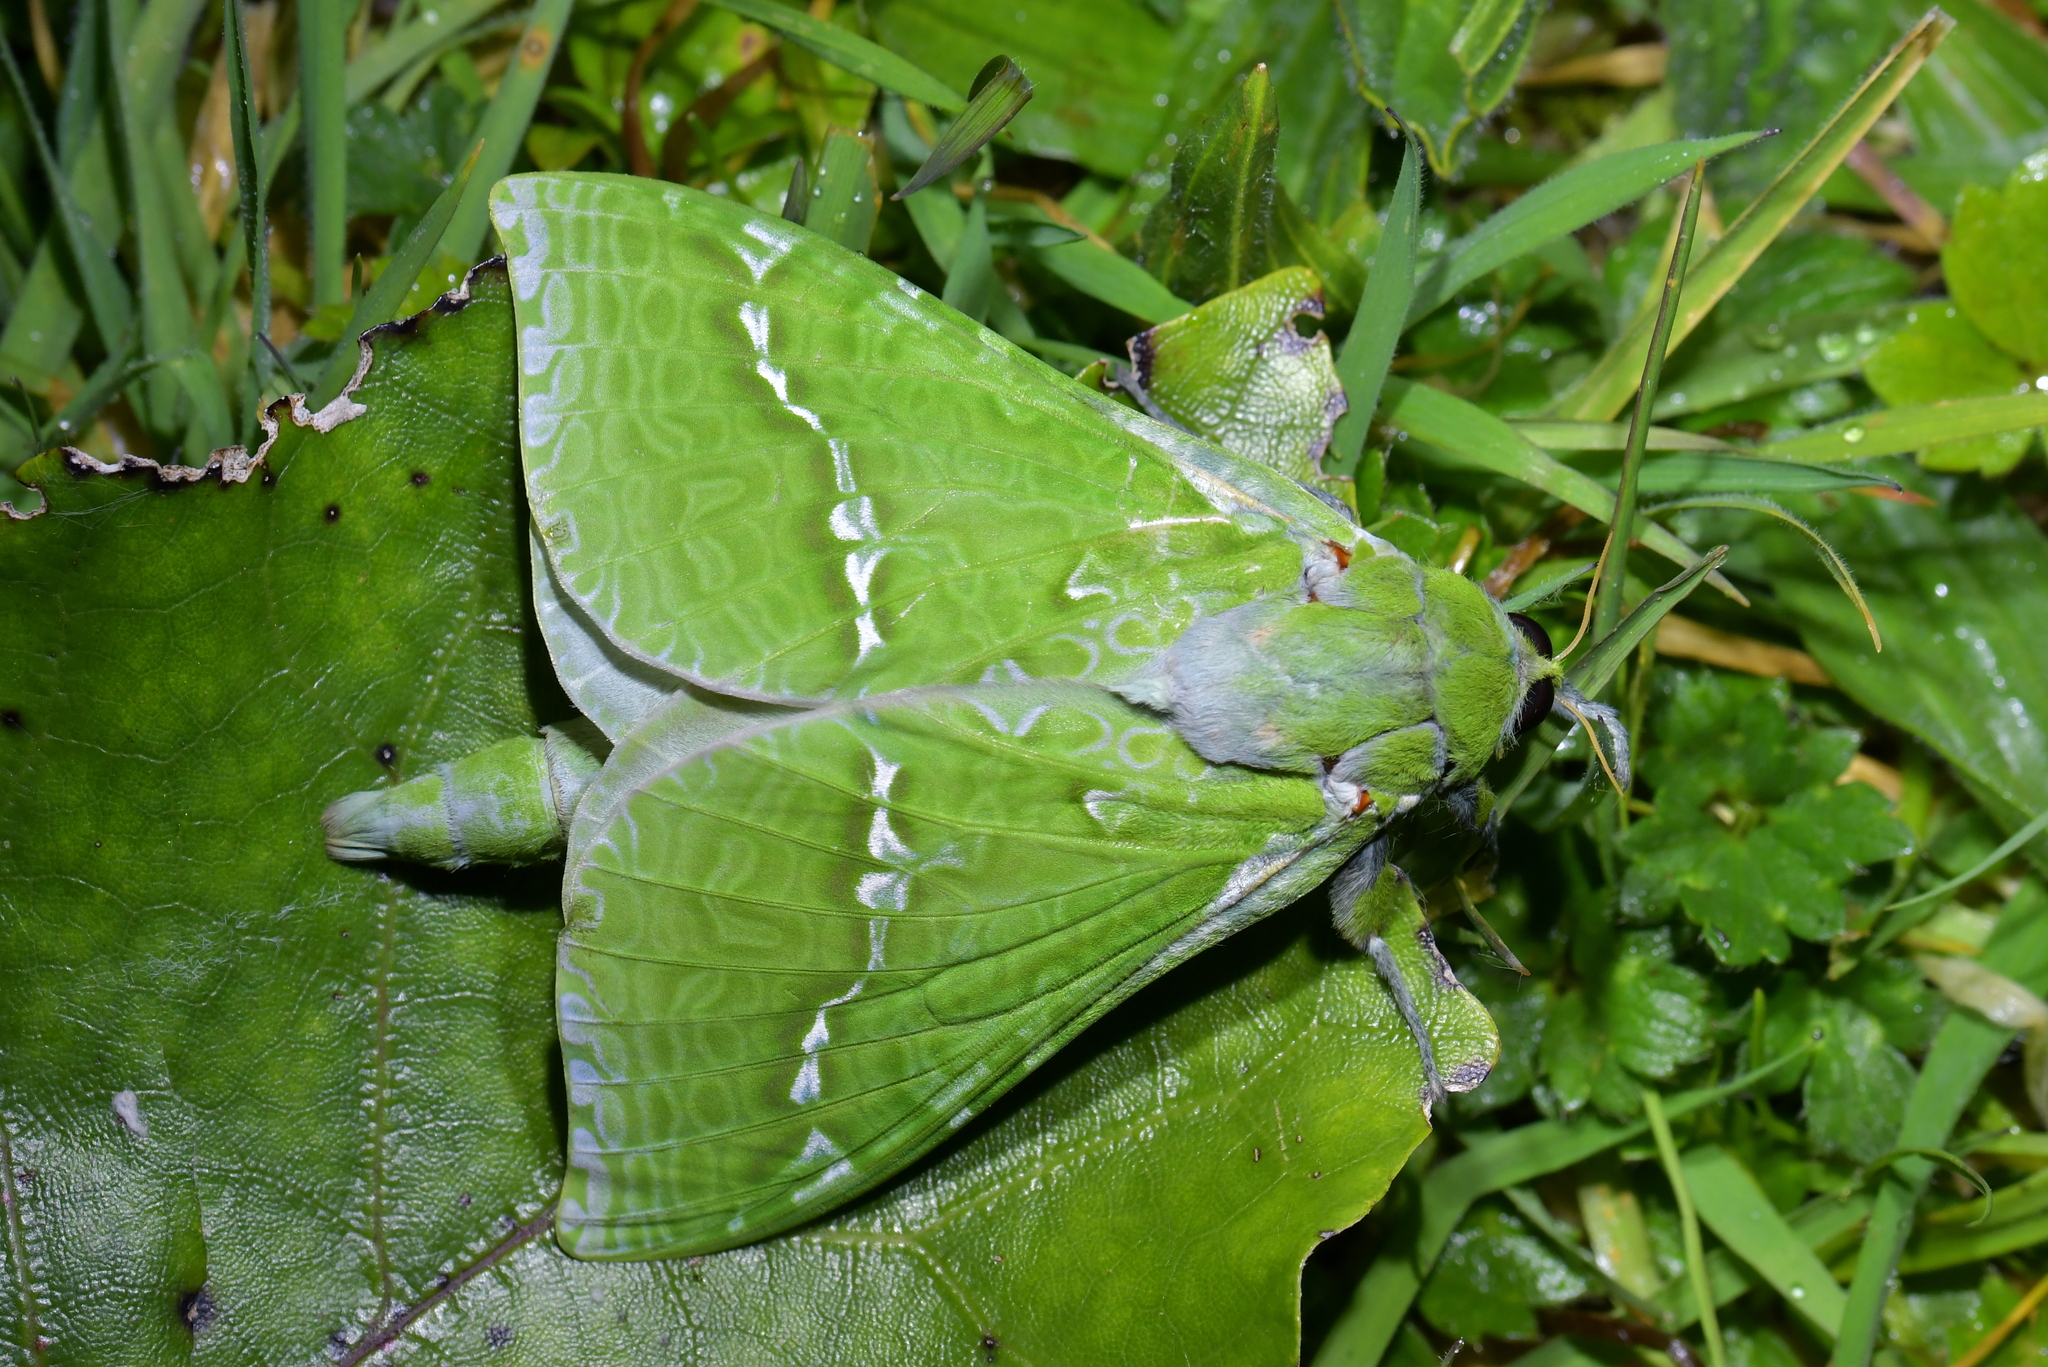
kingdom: Animalia
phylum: Arthropoda
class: Insecta
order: Lepidoptera
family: Hepialidae
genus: Aenetus
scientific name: Aenetus virescens
